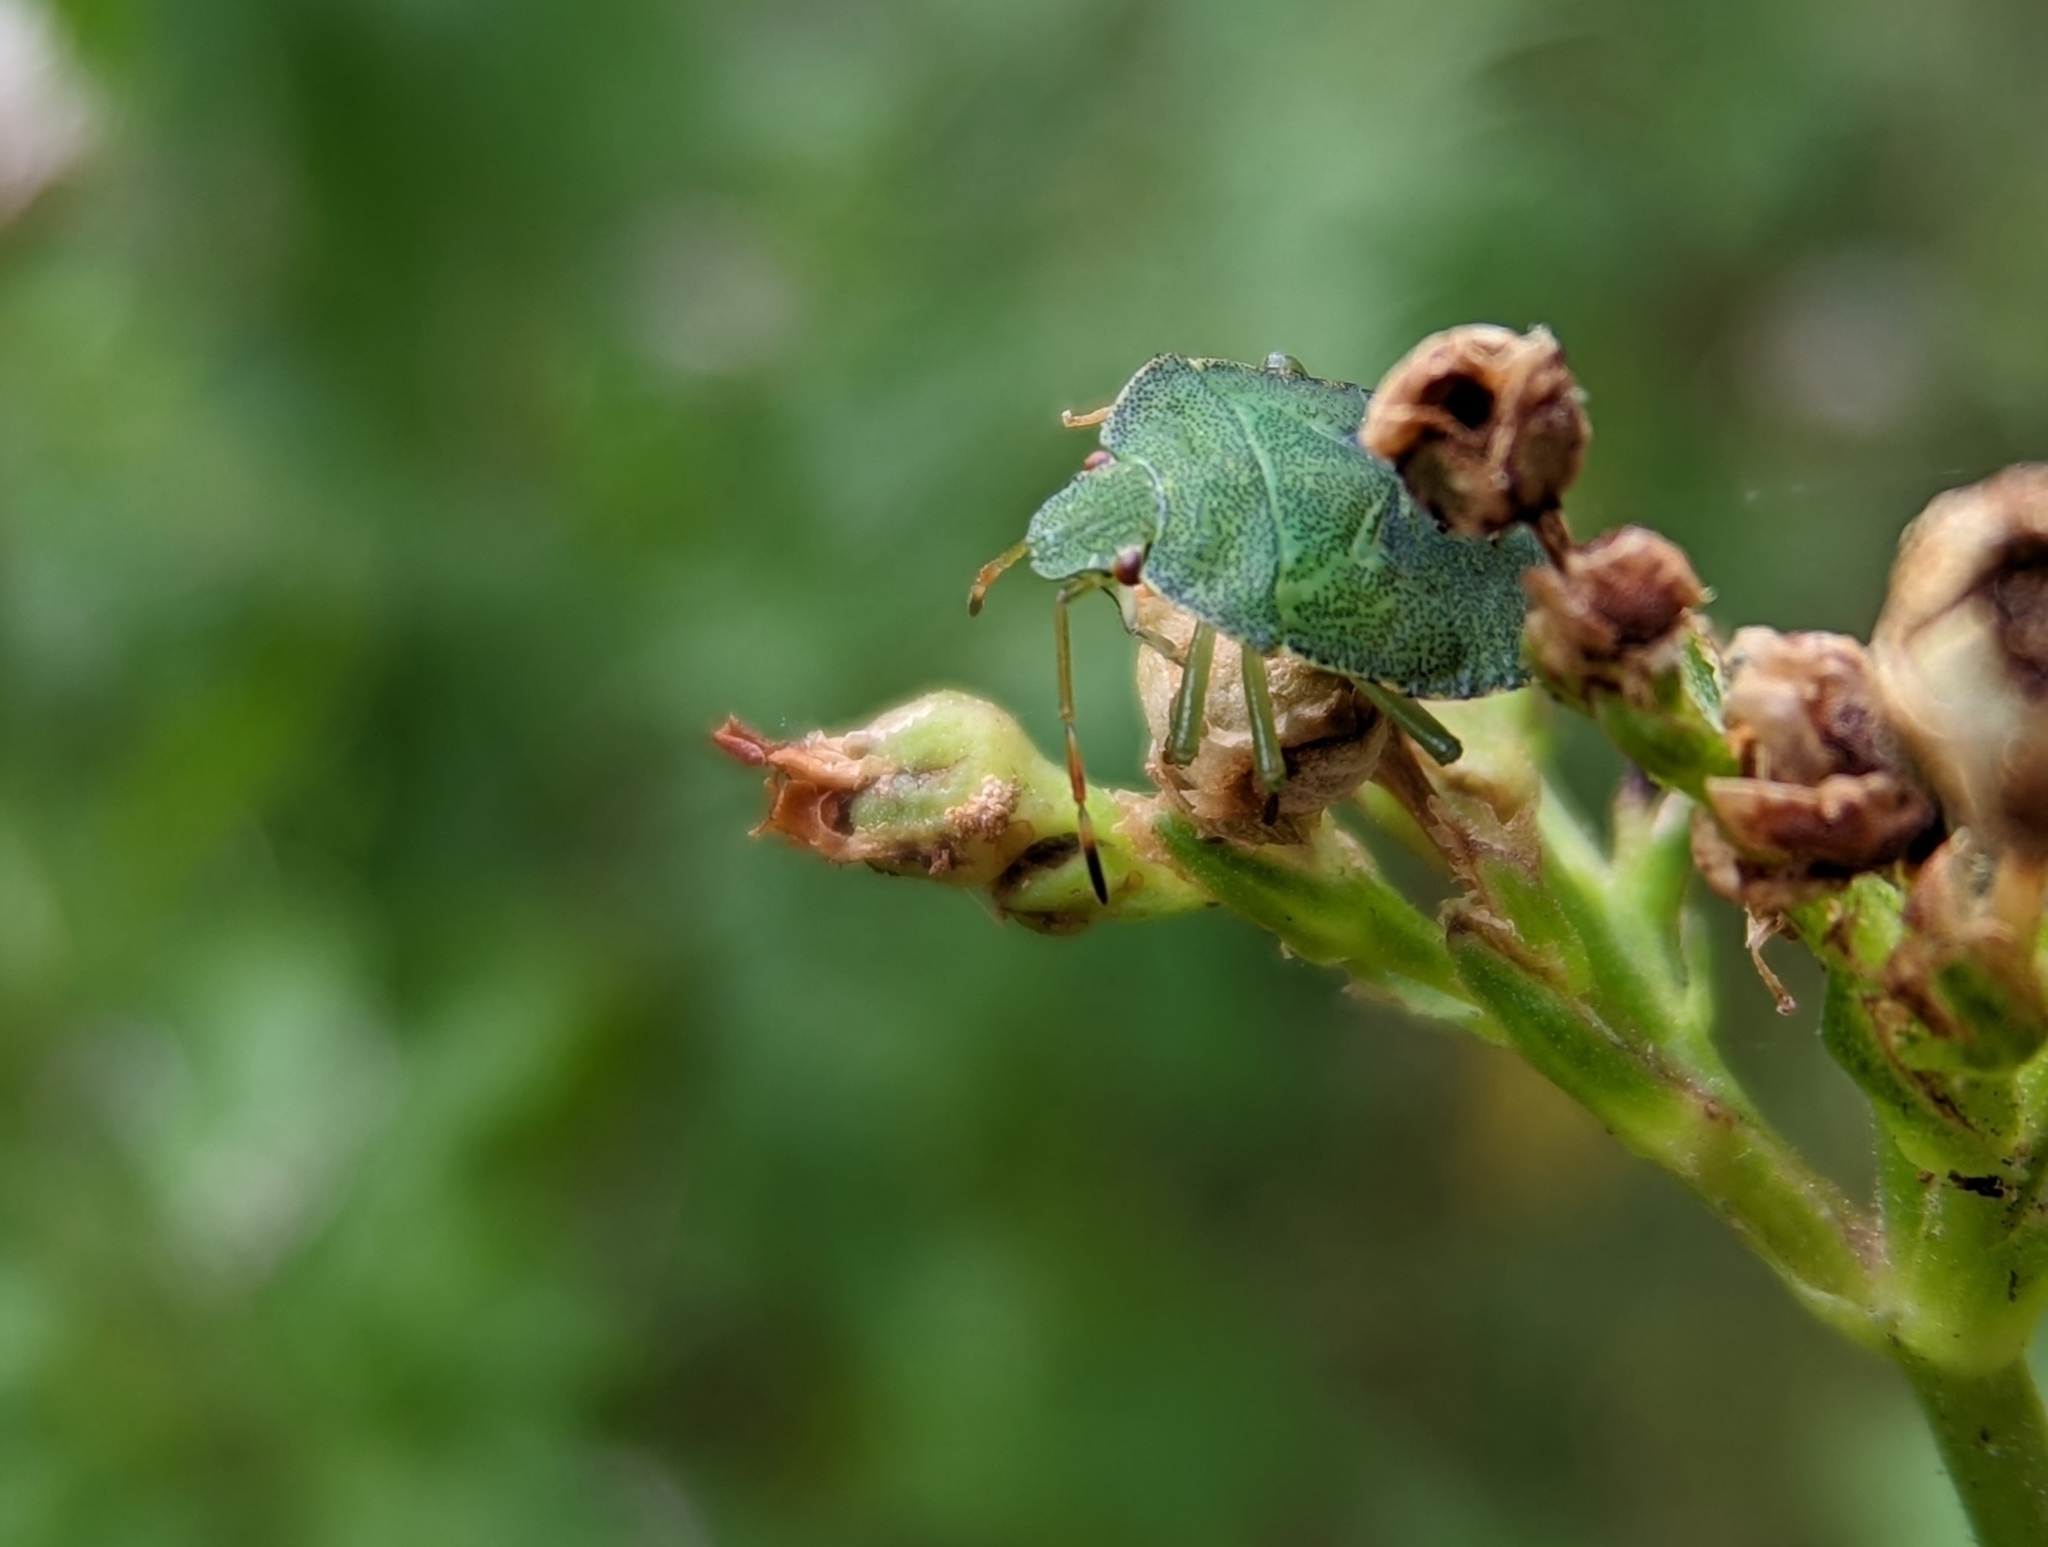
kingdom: Animalia
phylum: Arthropoda
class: Insecta
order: Hemiptera
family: Pentatomidae
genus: Palomena
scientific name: Palomena prasina
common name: Green shieldbug
